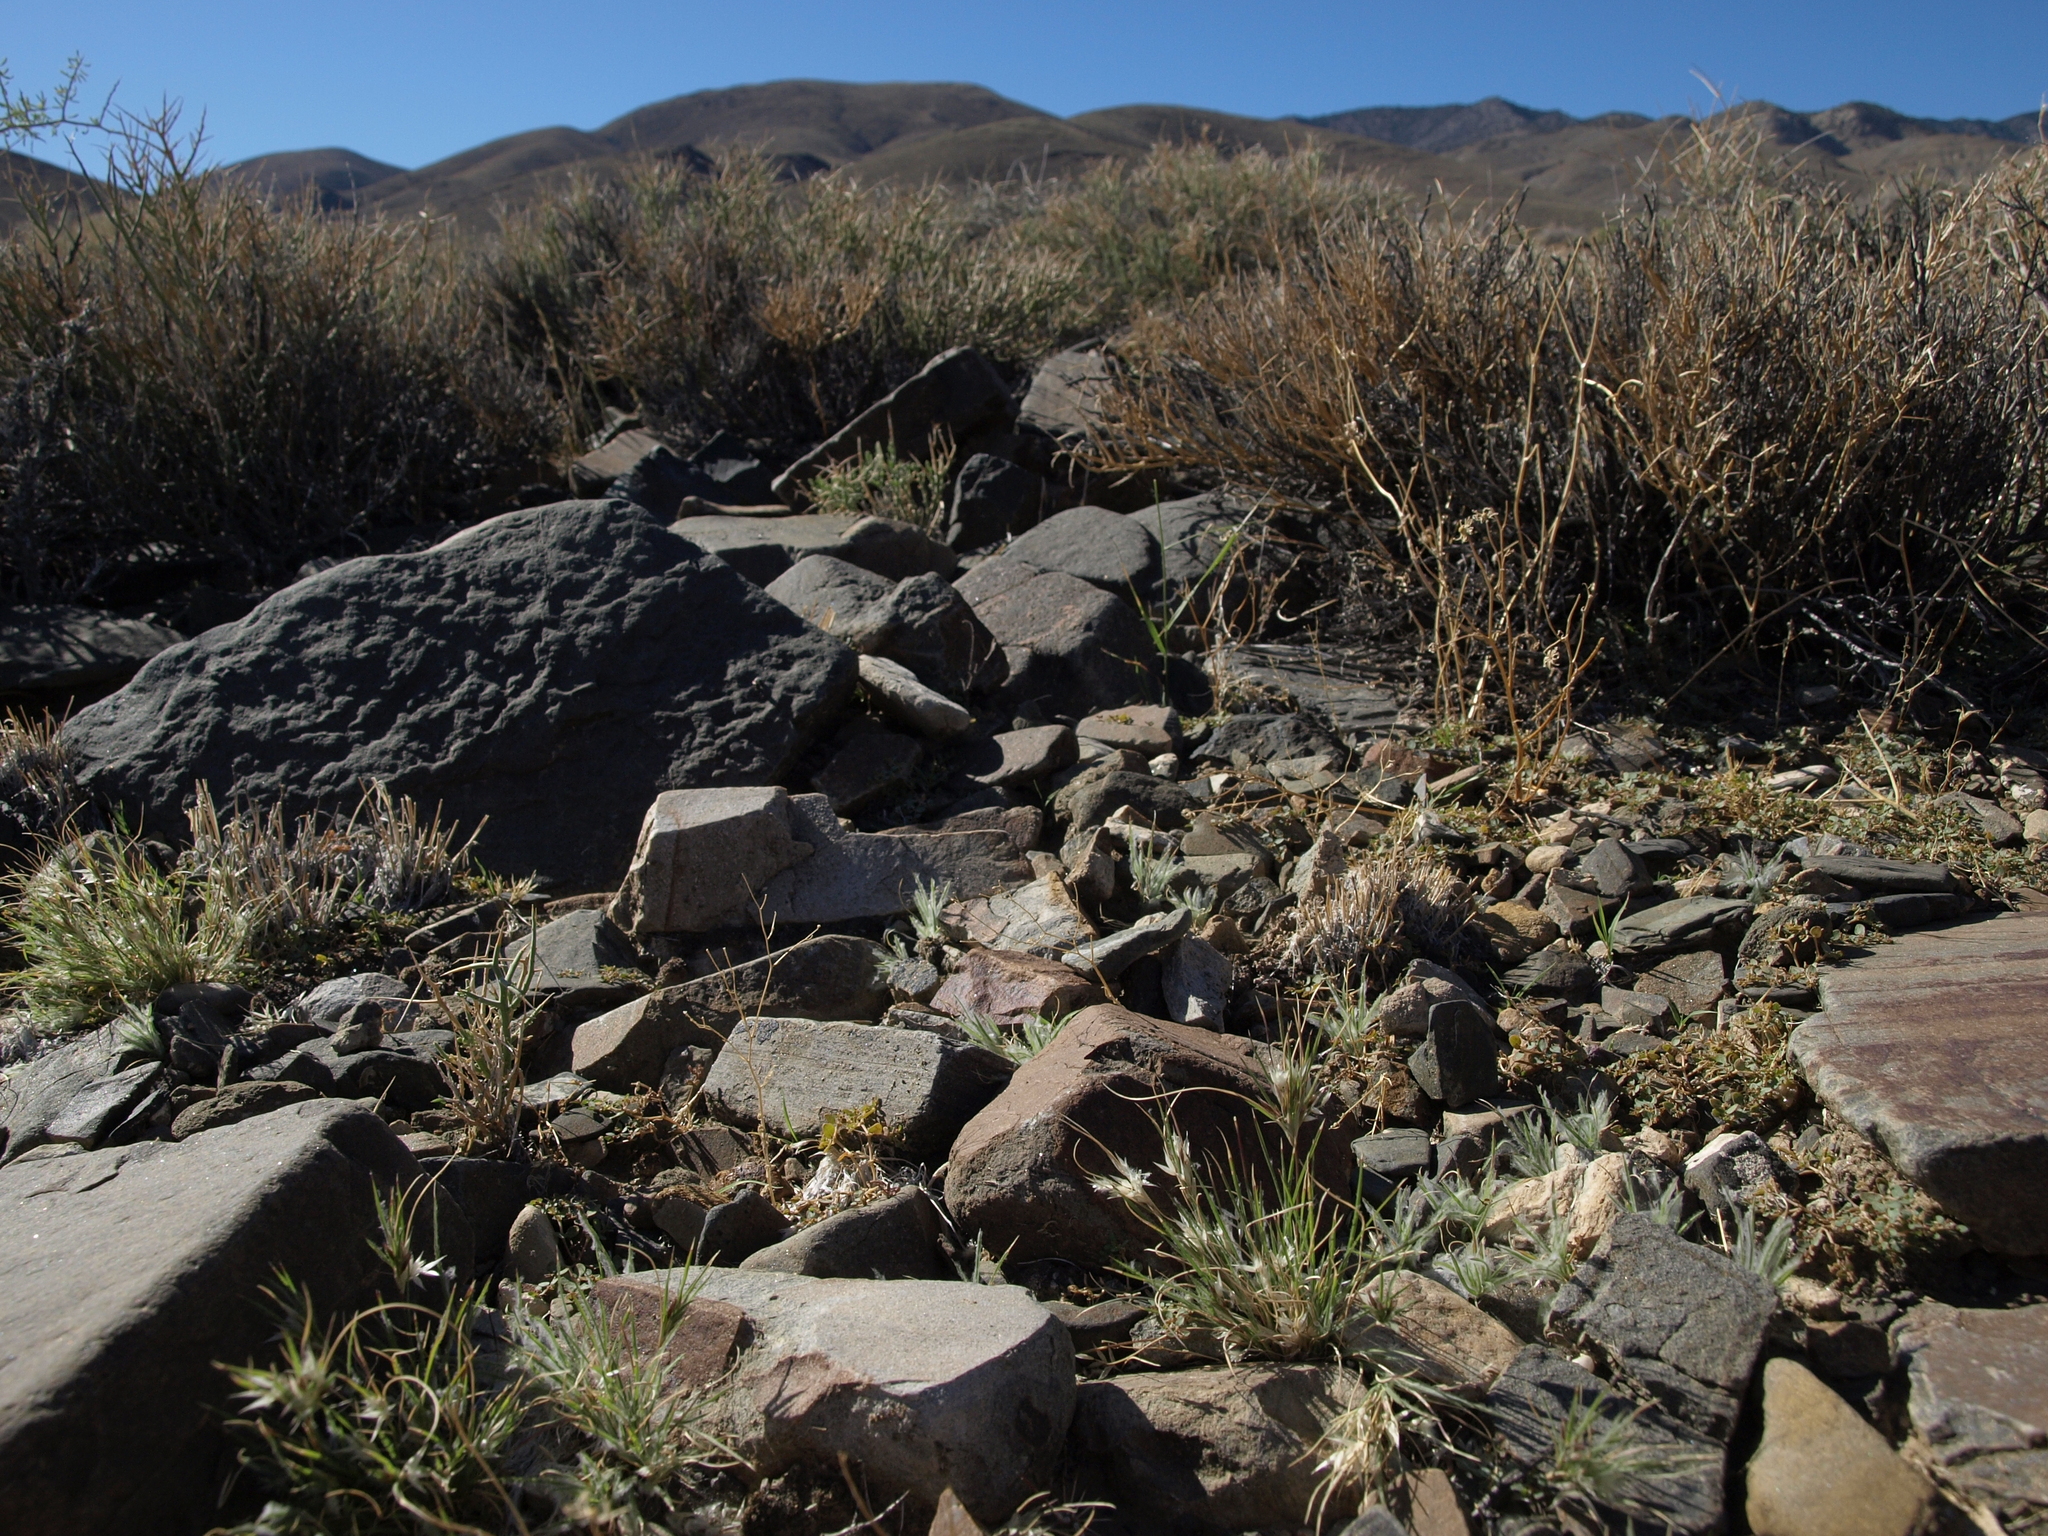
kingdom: Plantae
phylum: Tracheophyta
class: Liliopsida
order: Poales
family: Poaceae
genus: Dasyochloa
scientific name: Dasyochloa pulchella
